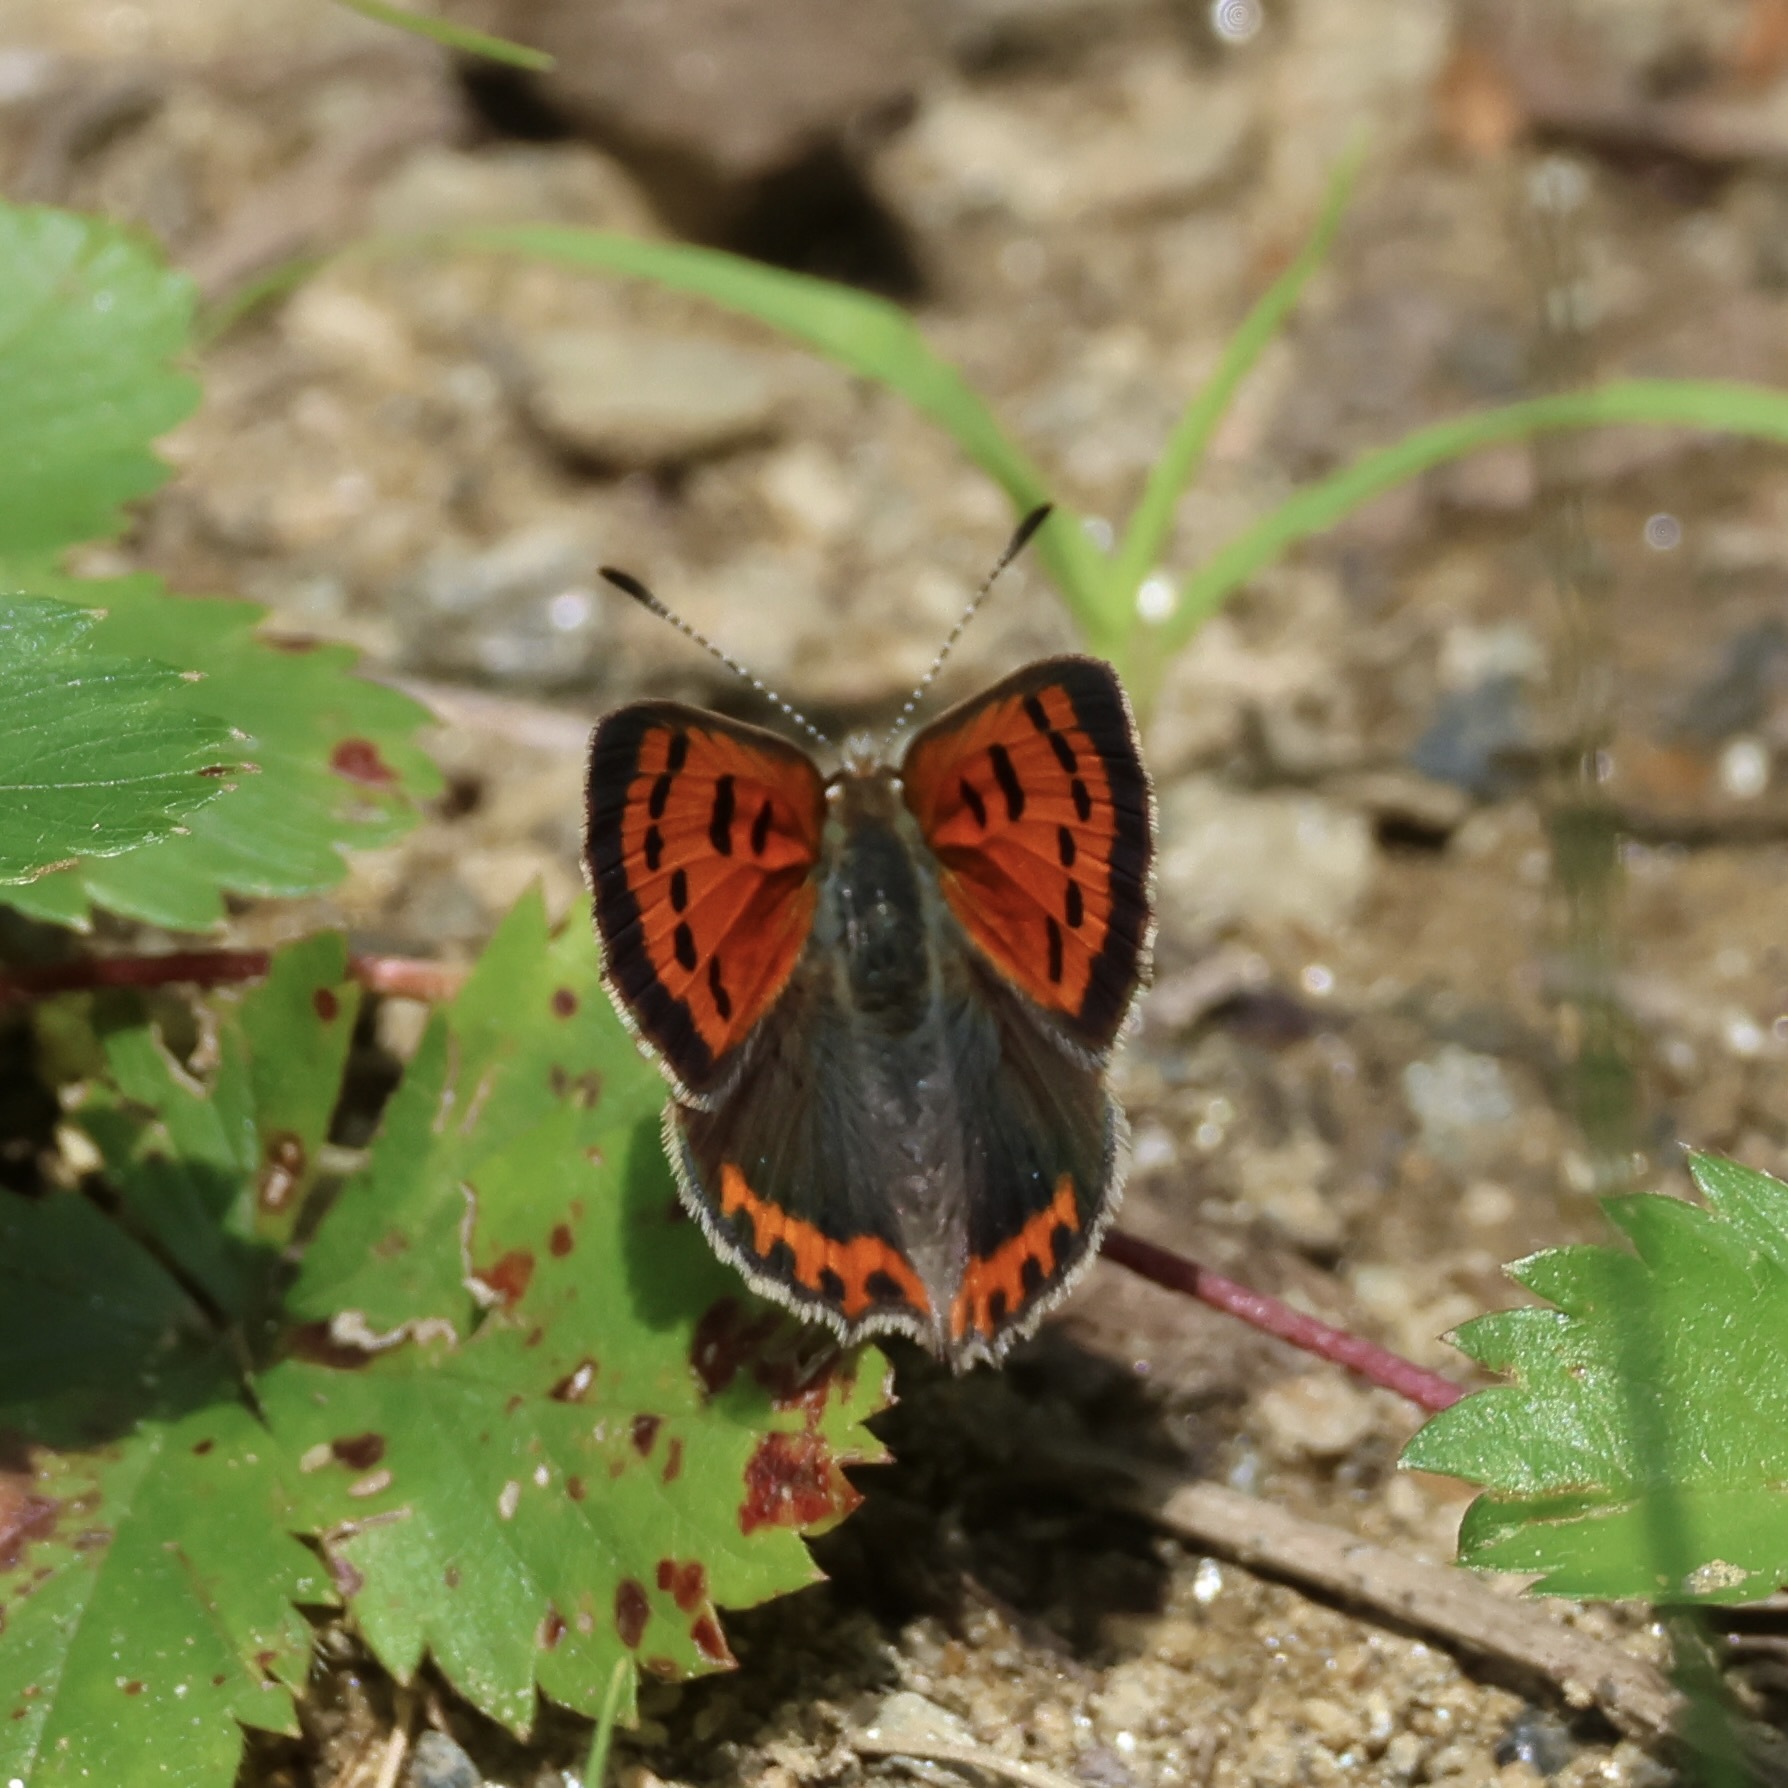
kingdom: Animalia
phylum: Arthropoda
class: Insecta
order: Lepidoptera
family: Lycaenidae
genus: Lycaena
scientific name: Lycaena hypophlaeas
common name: American copper
